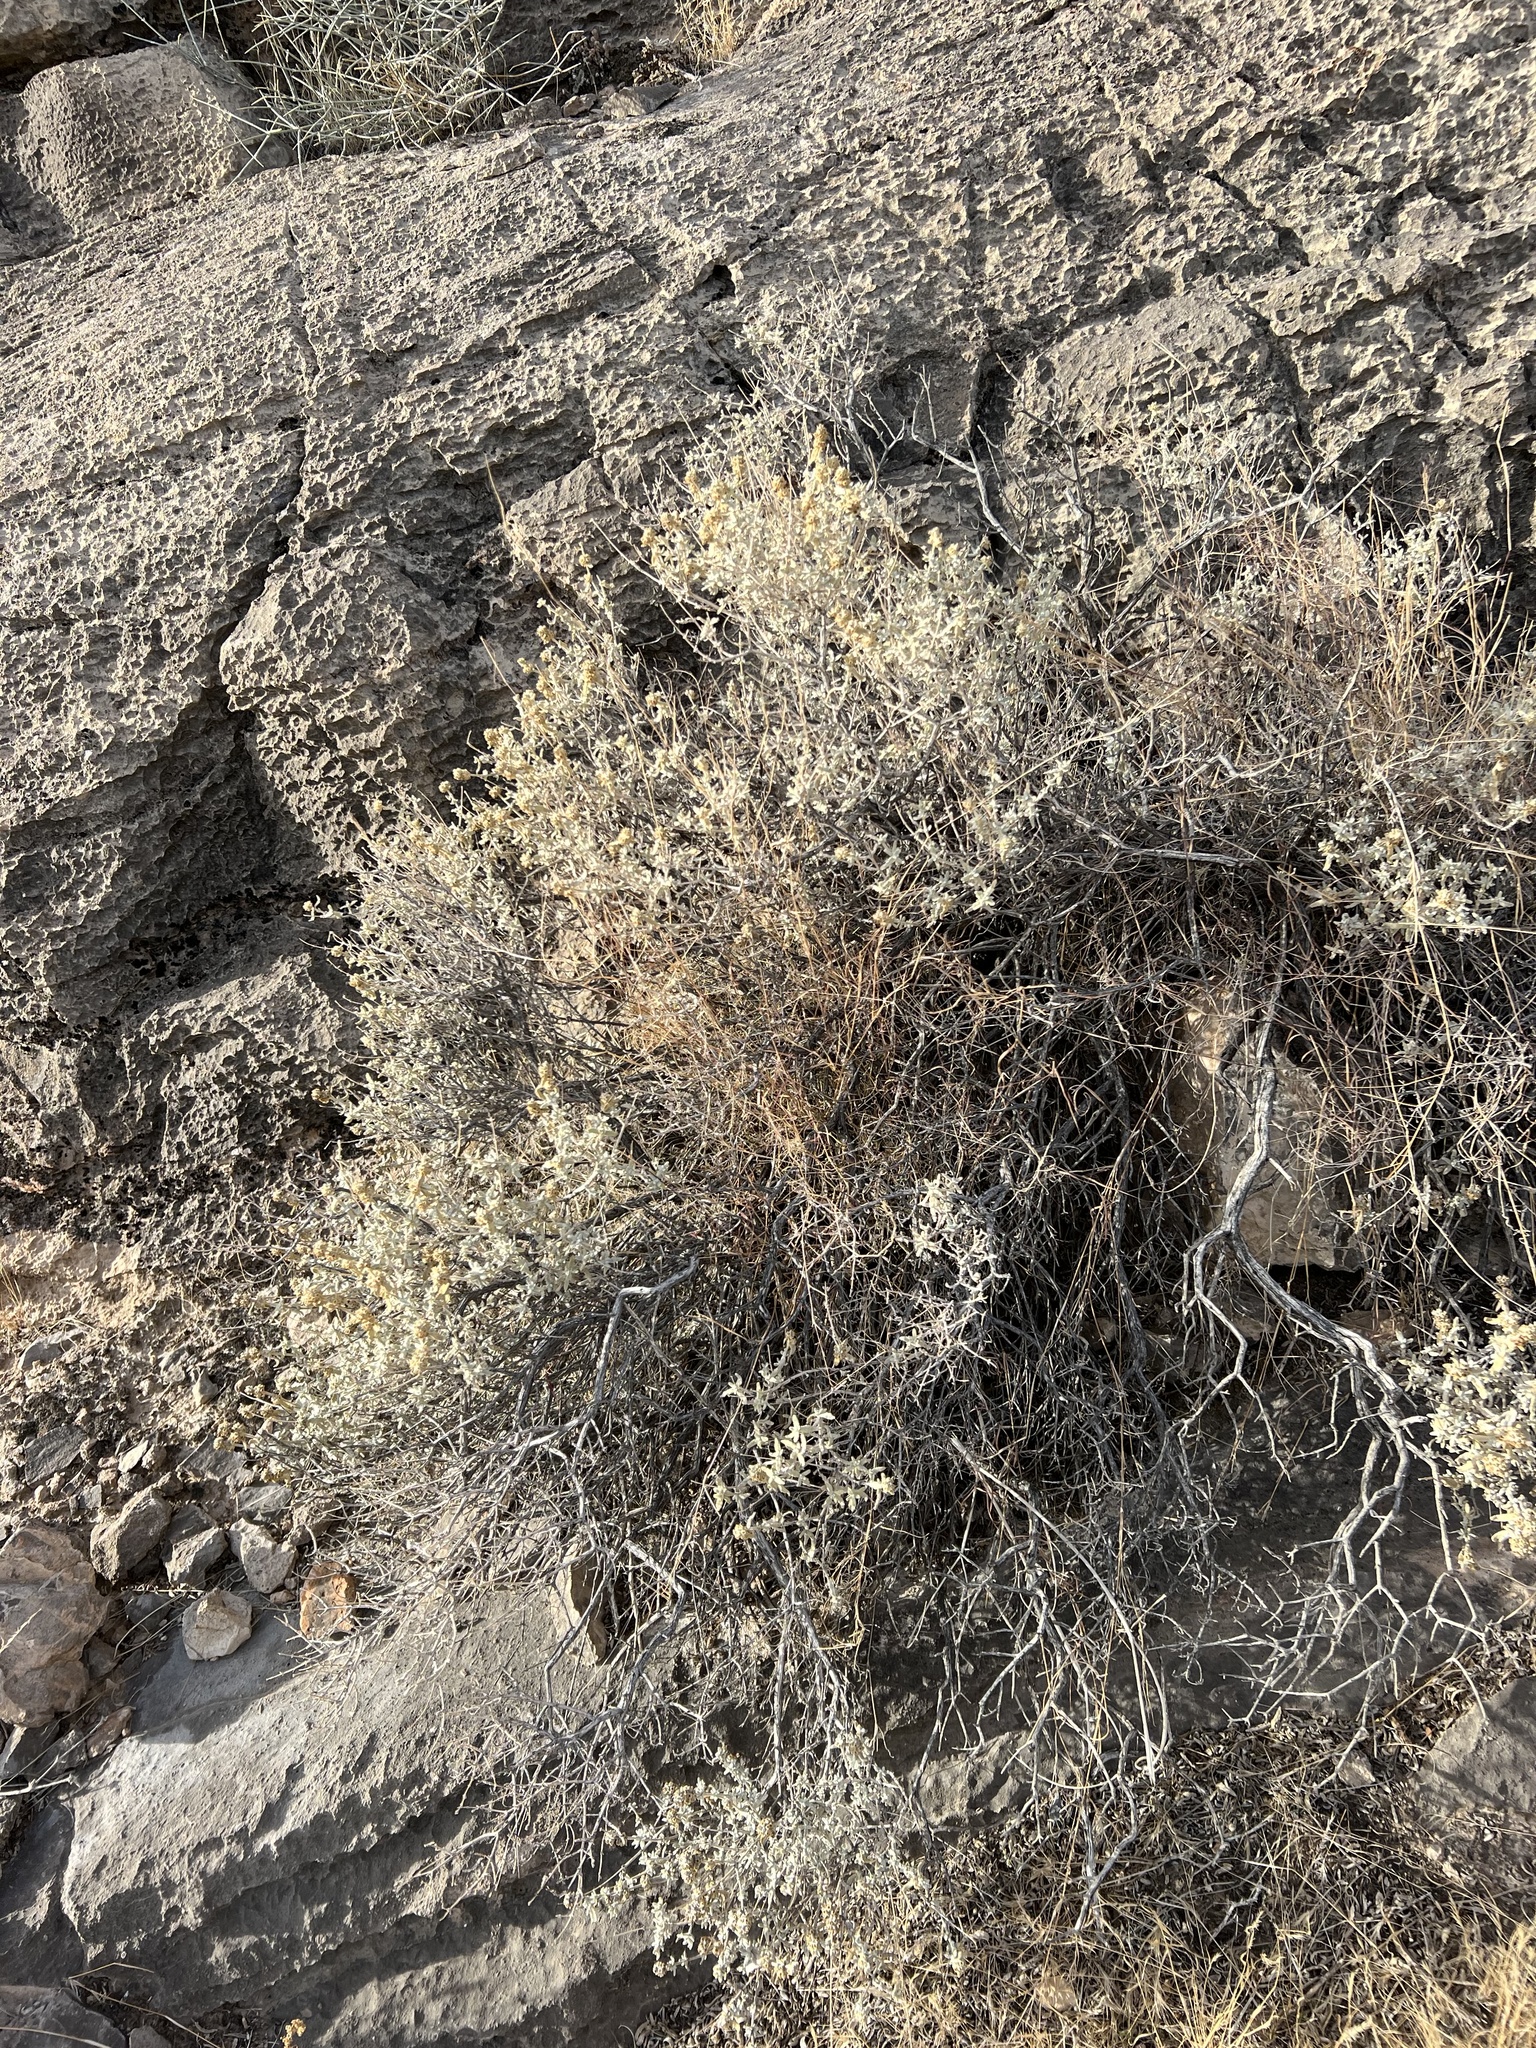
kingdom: Plantae
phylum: Tracheophyta
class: Magnoliopsida
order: Lamiales
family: Scrophulariaceae
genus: Buddleja
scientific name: Buddleja utahensis
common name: Utah butterfly-bush
